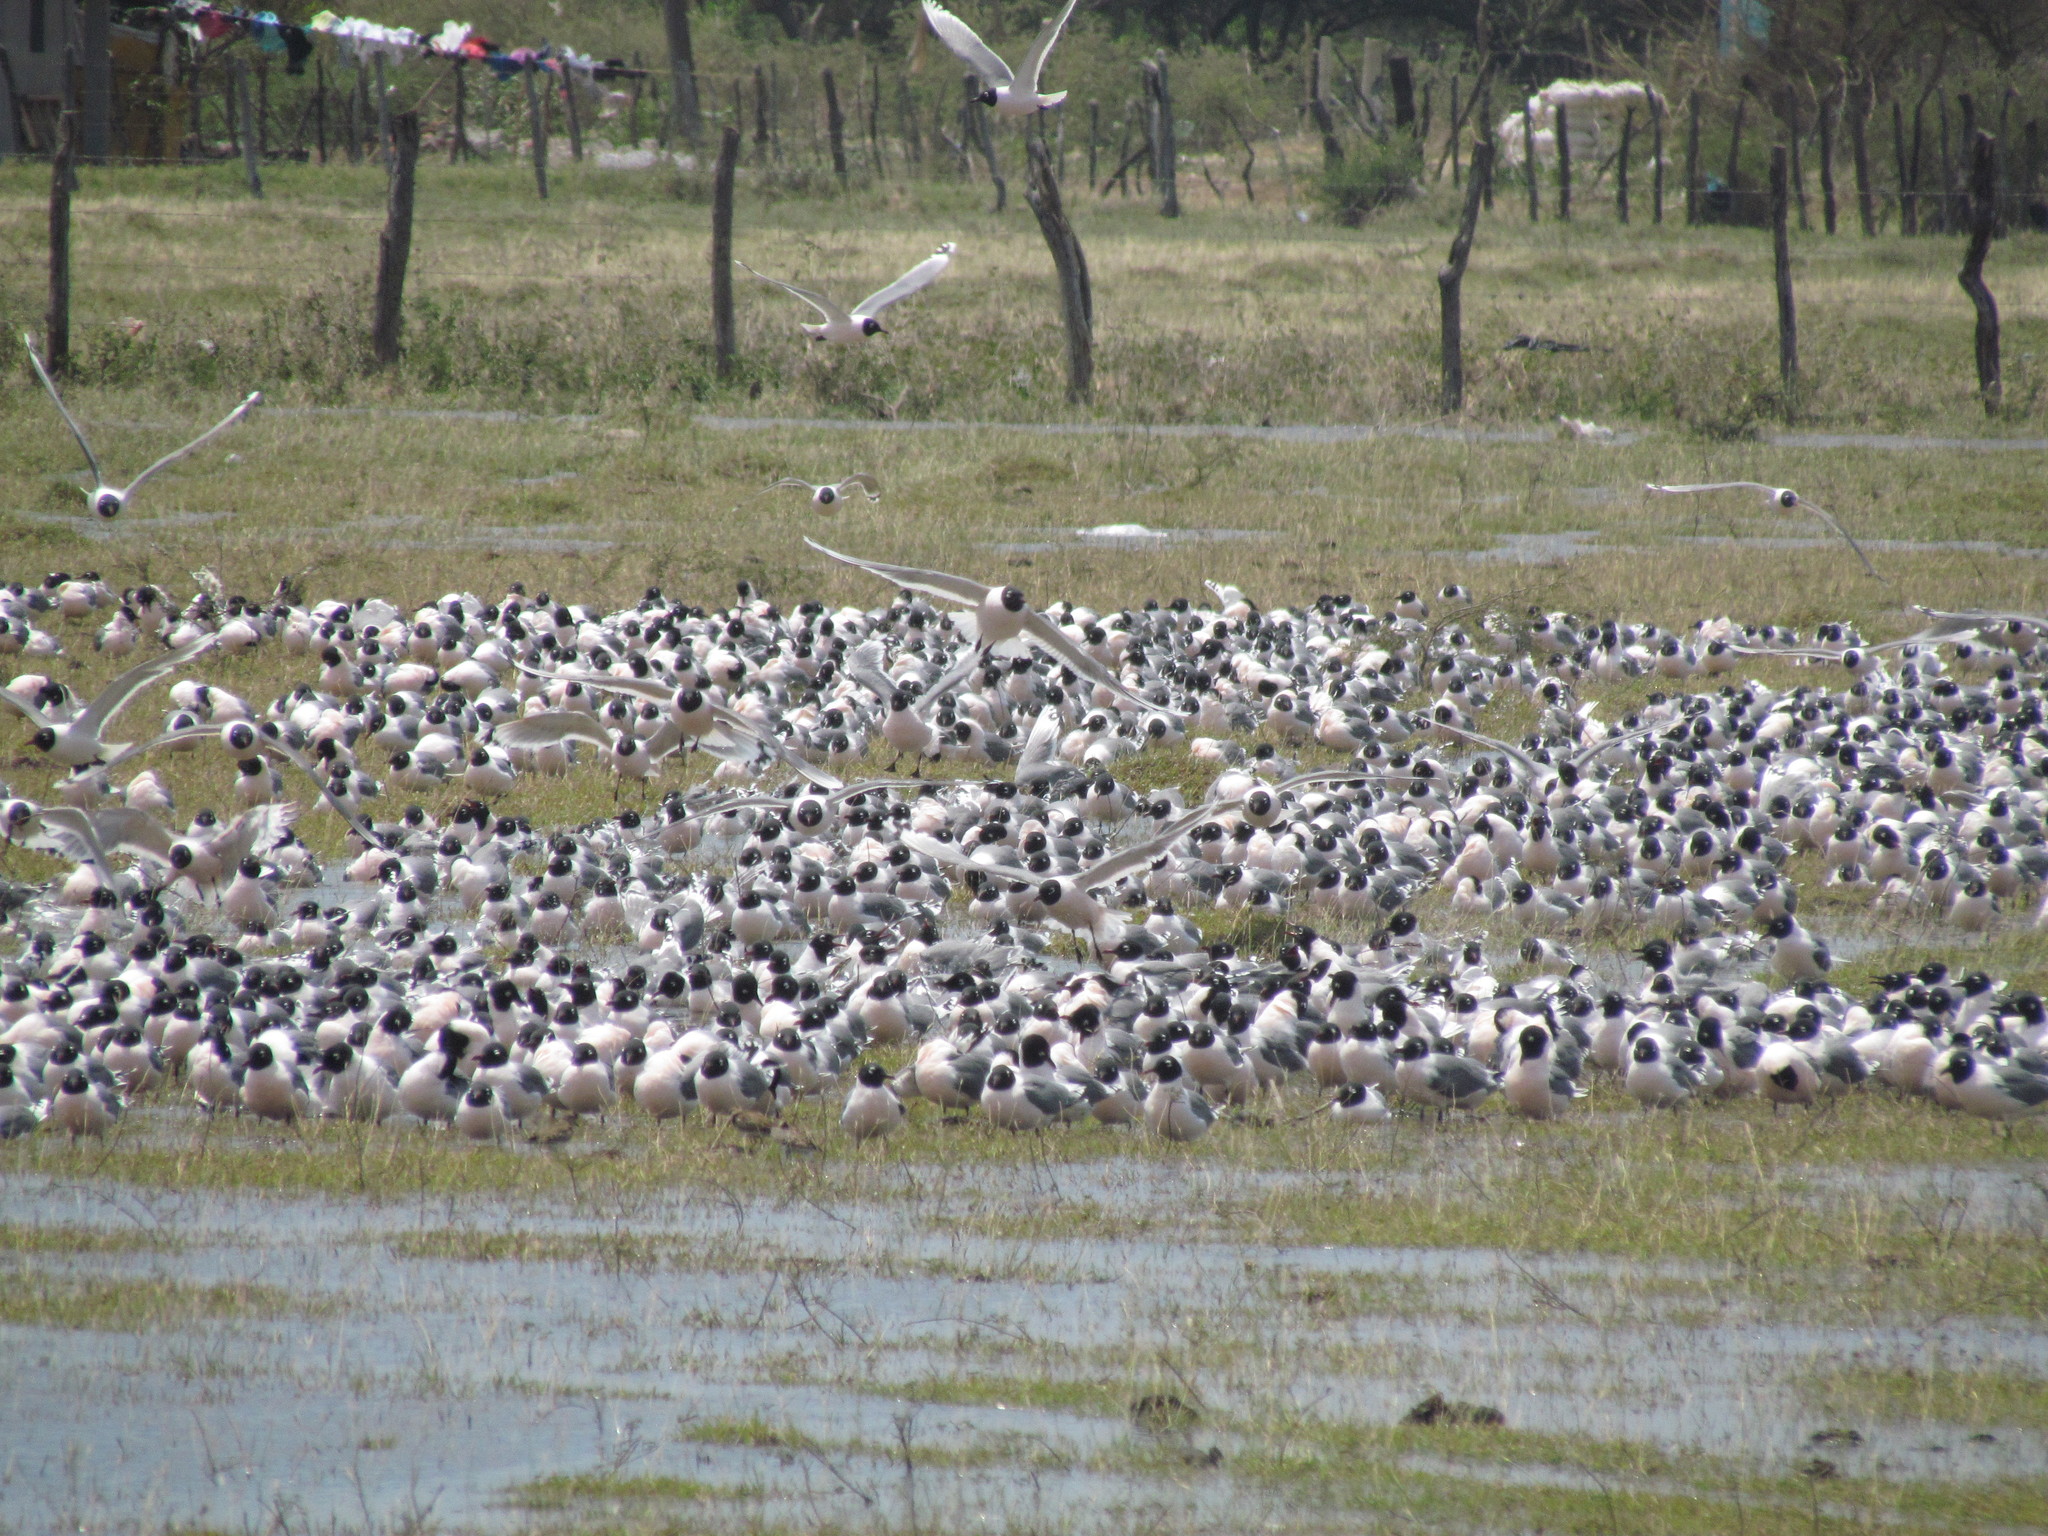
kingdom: Animalia
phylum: Chordata
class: Aves
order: Charadriiformes
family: Laridae
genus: Leucophaeus
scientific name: Leucophaeus pipixcan
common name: Franklin's gull
